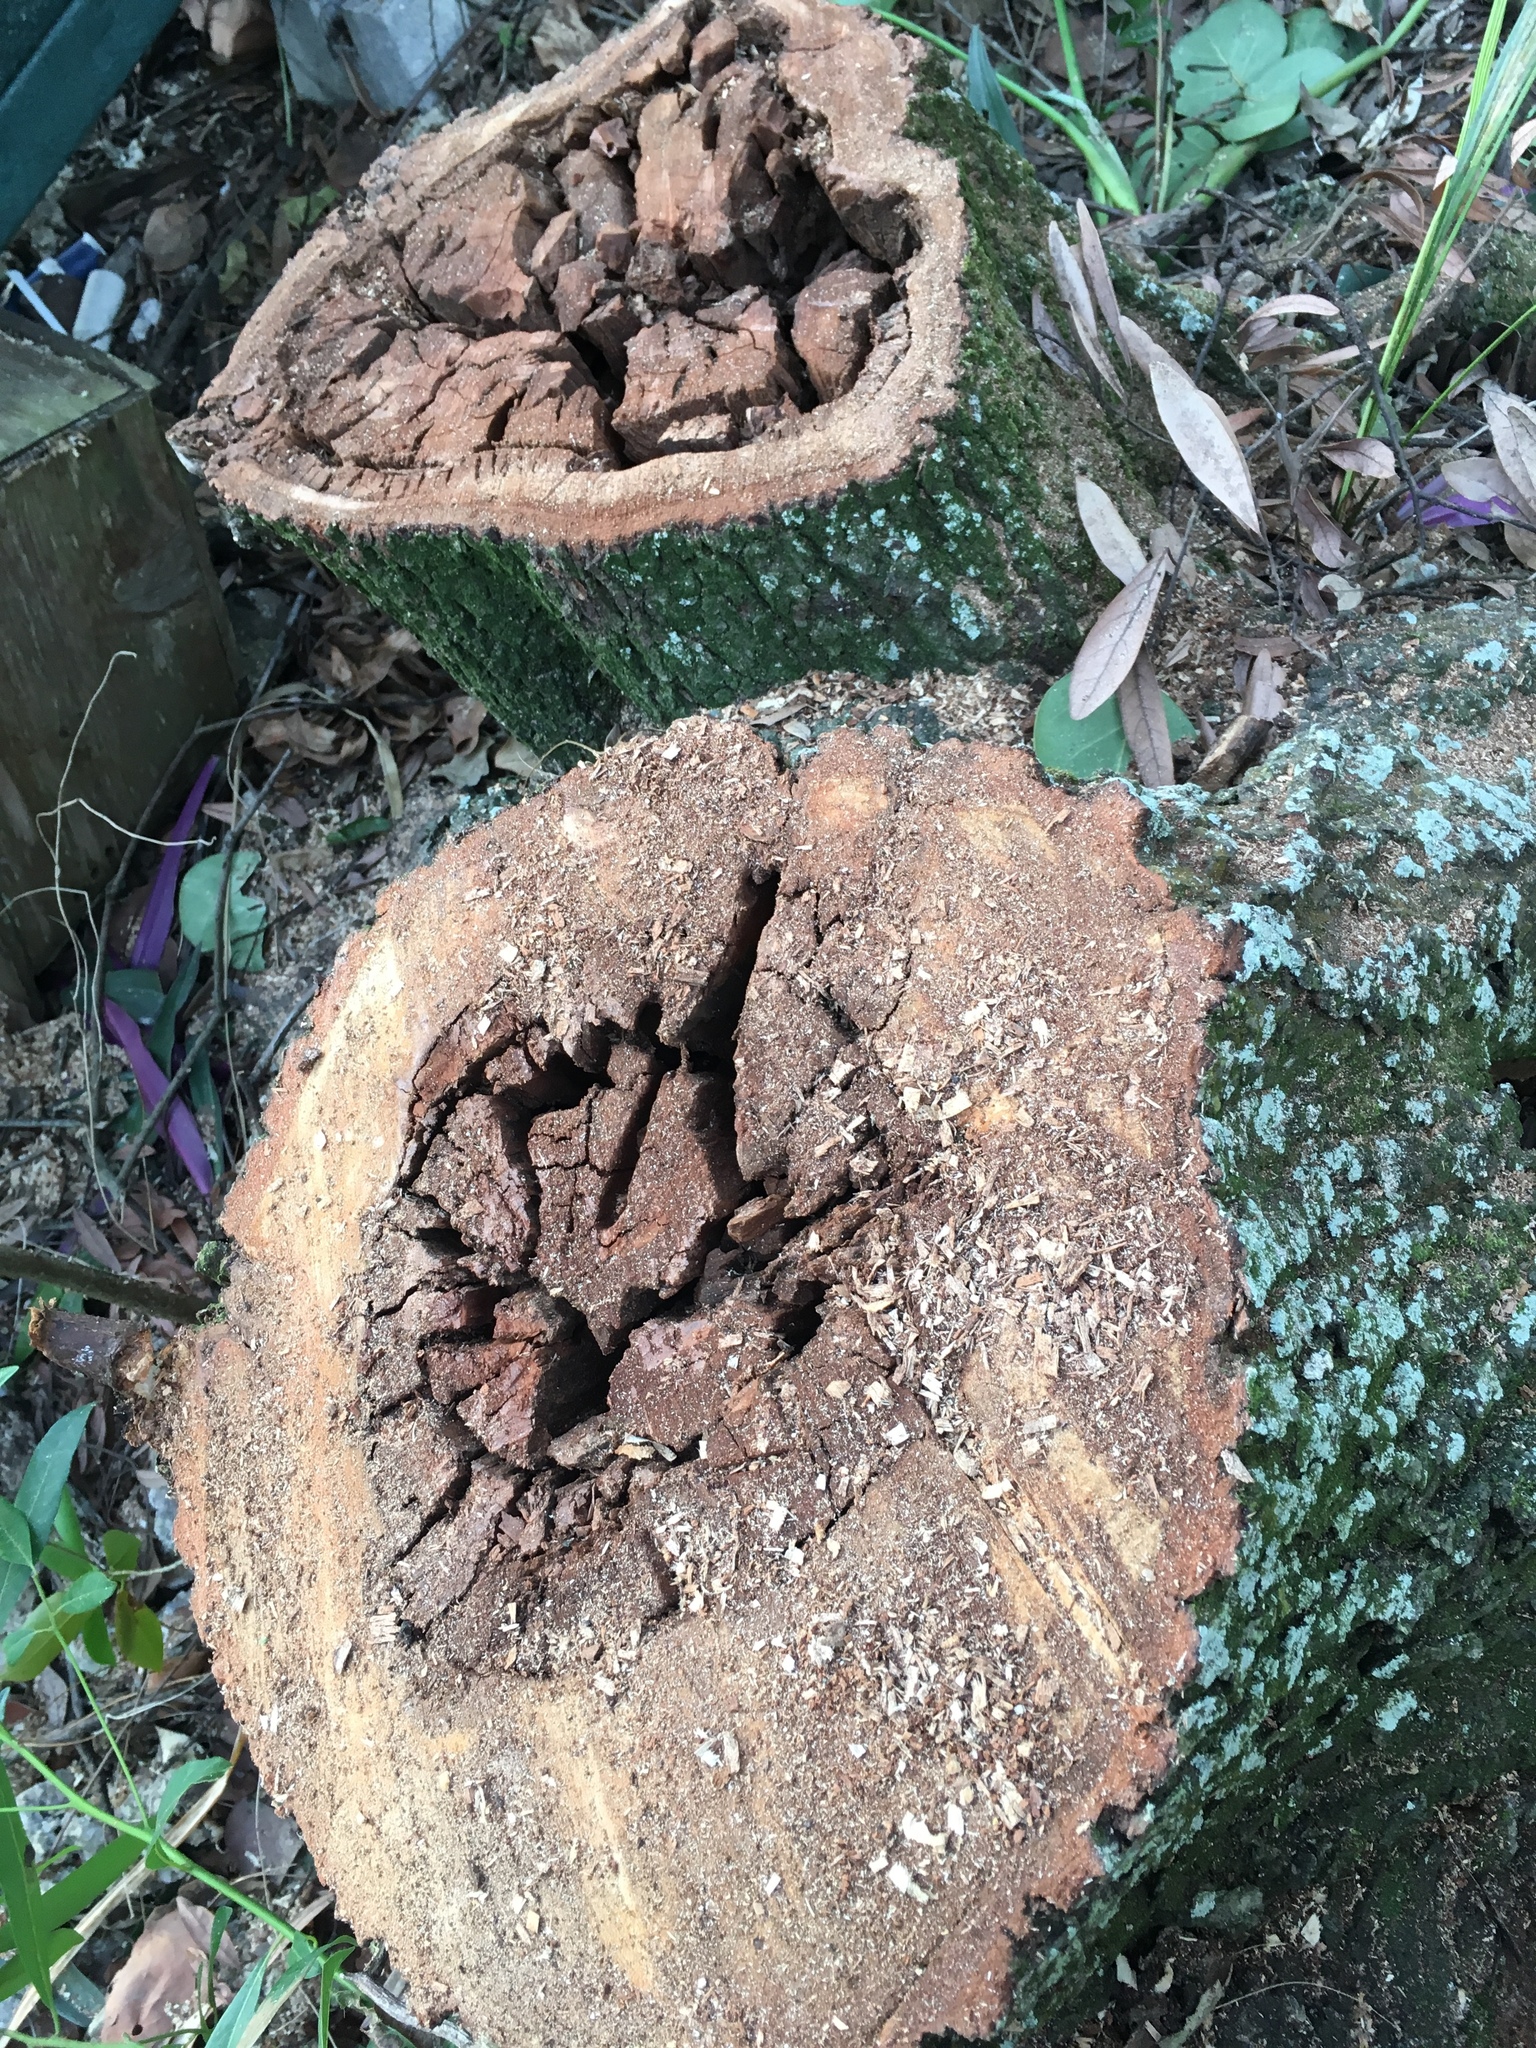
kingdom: Fungi
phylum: Ascomycota
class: Sordariomycetes
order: Ophiostomatales
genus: Harringtonia
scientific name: Harringtonia lauricola
